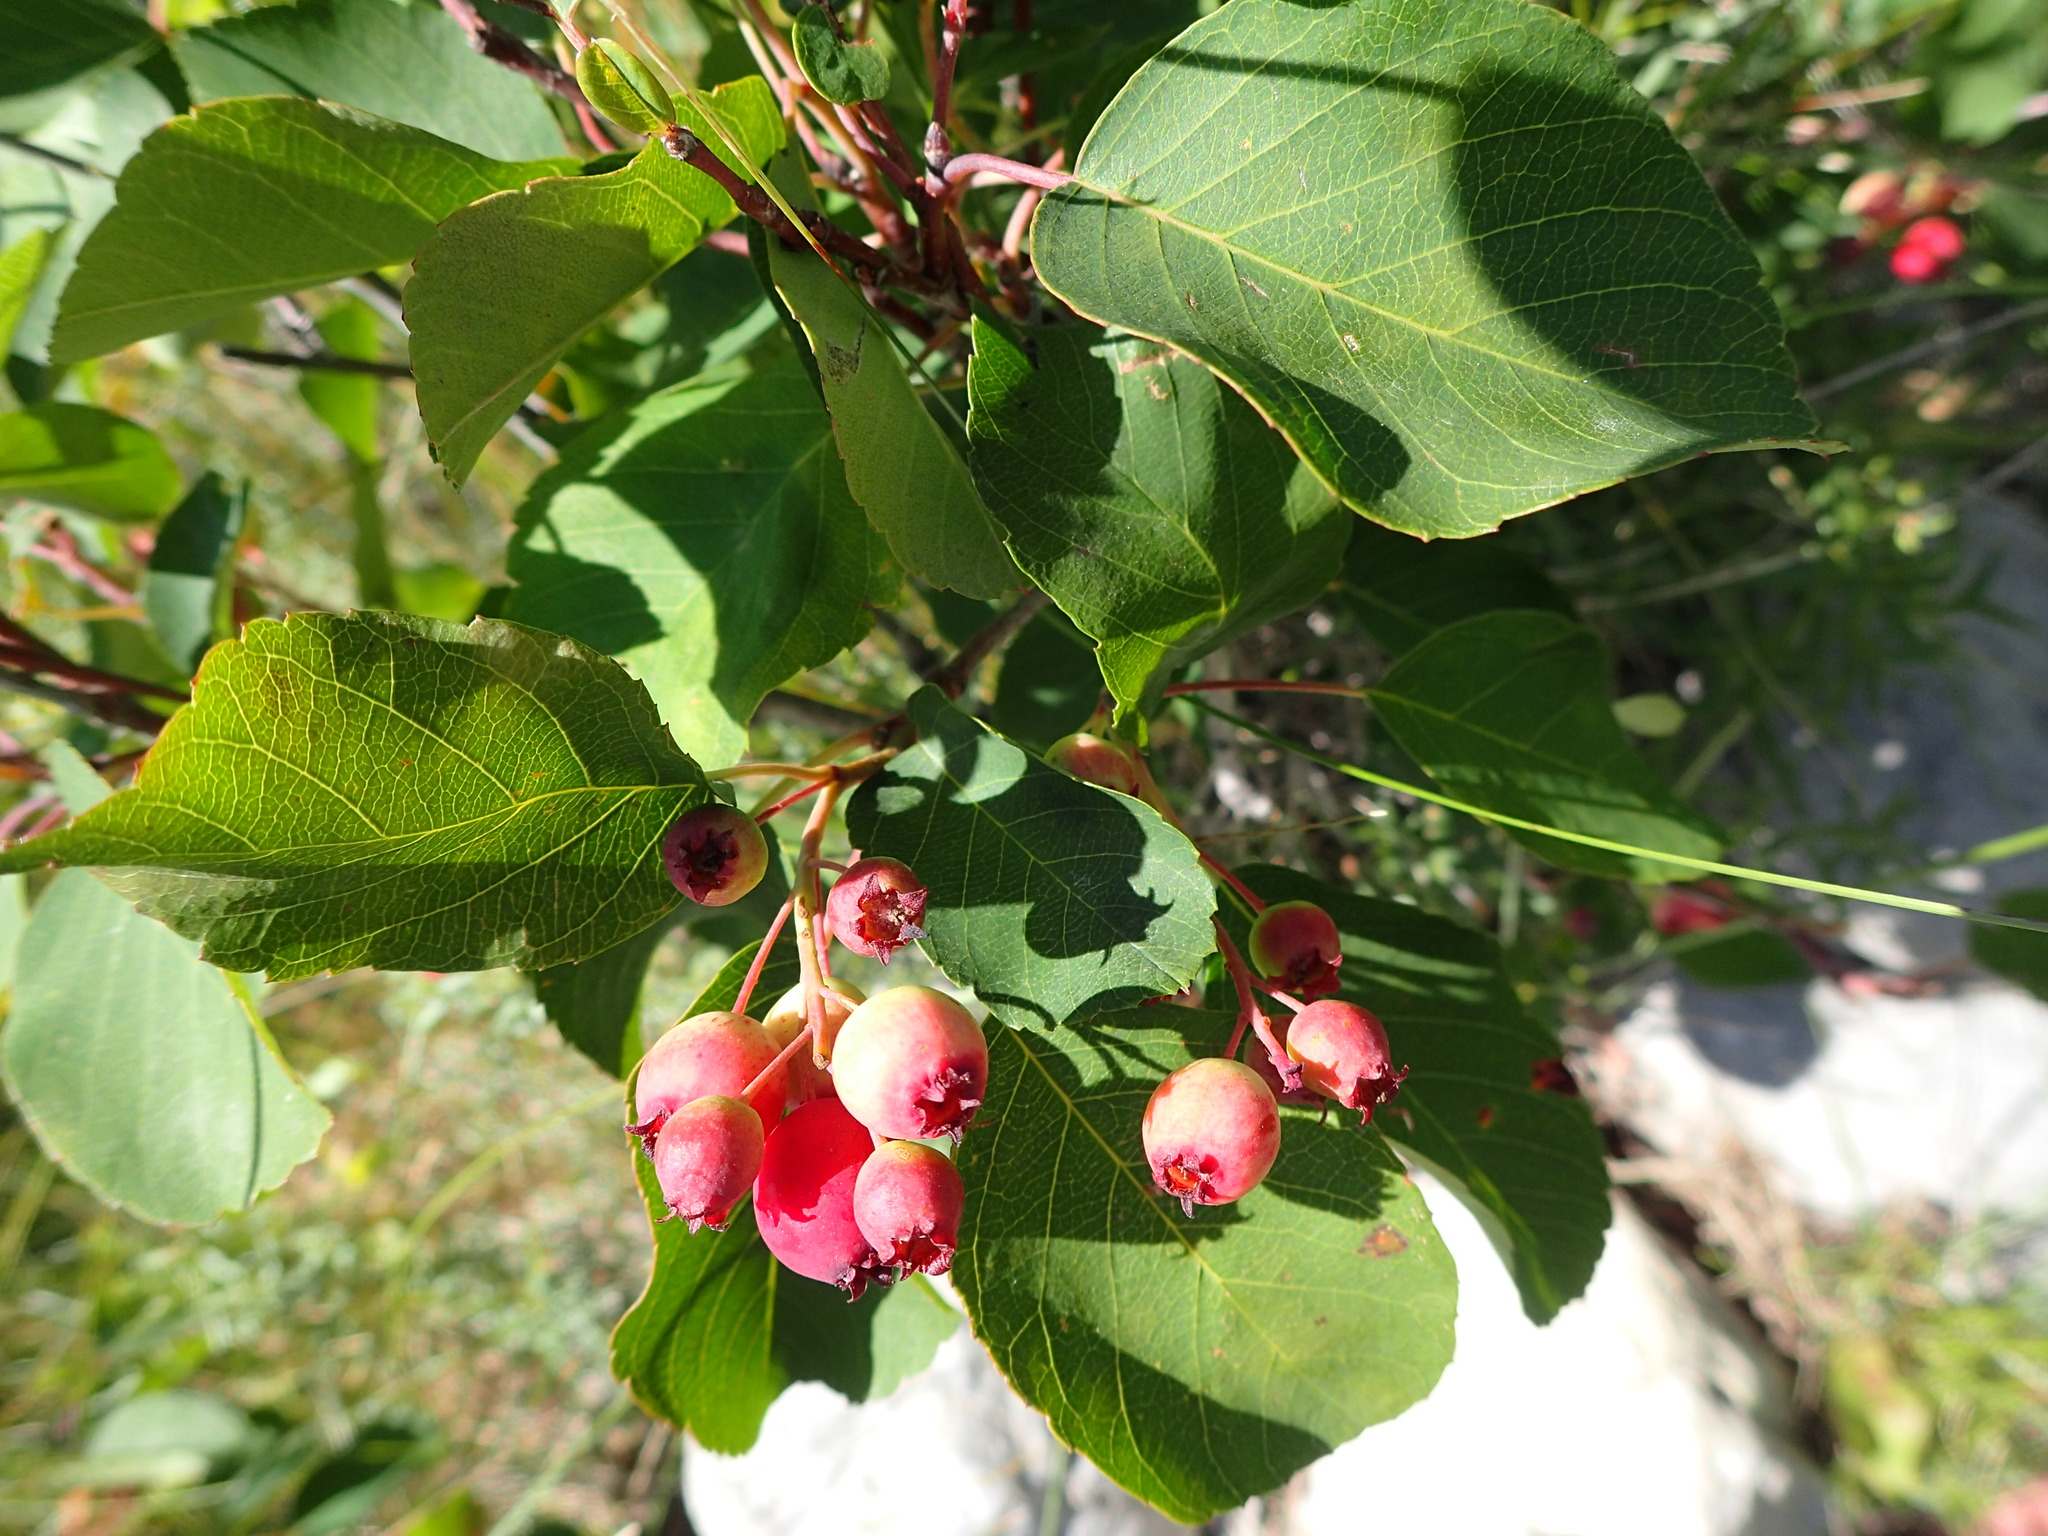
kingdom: Plantae
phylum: Tracheophyta
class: Magnoliopsida
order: Rosales
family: Rosaceae
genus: Amelanchier
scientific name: Amelanchier alnifolia
